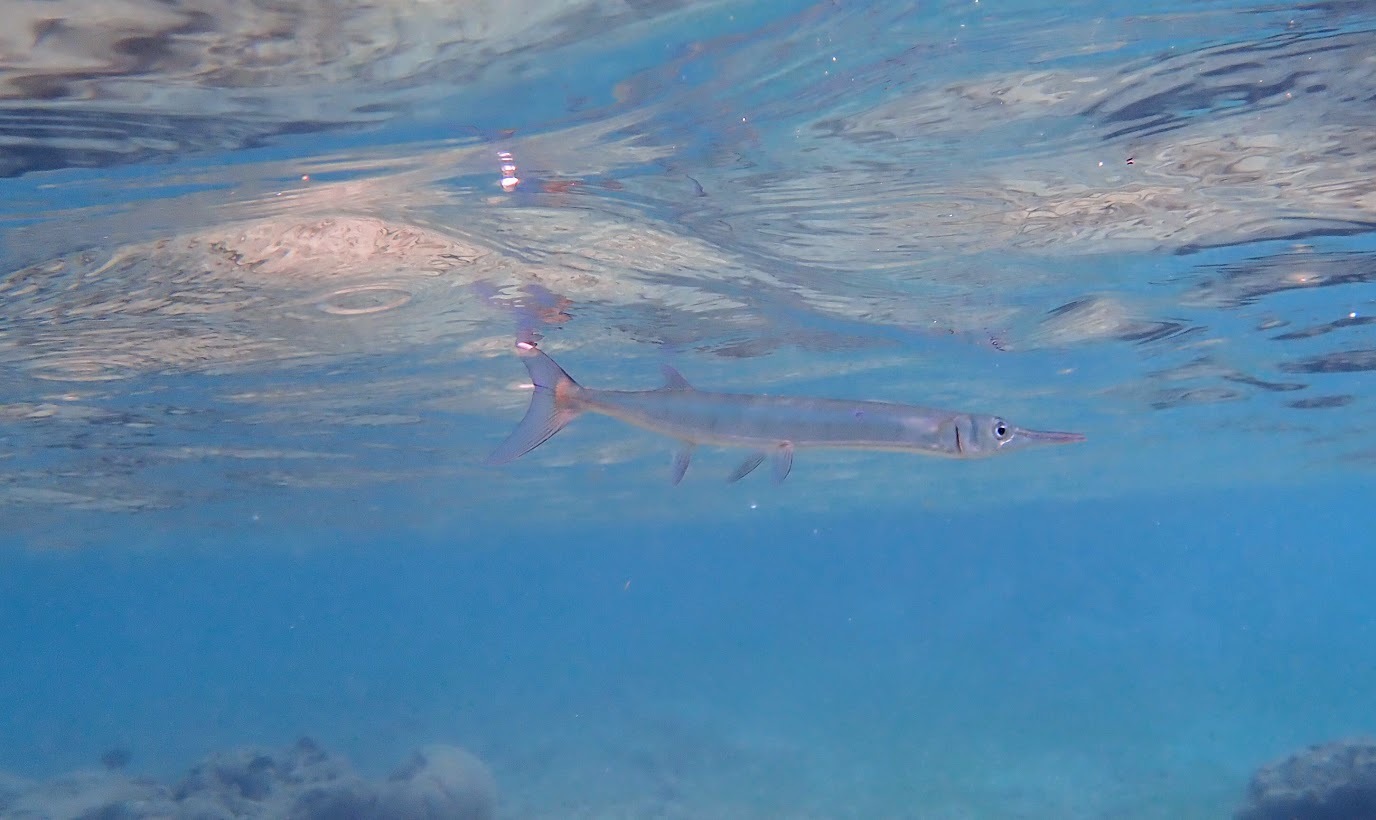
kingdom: Animalia
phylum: Chordata
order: Beloniformes
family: Belonidae
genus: Tylosurus
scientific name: Tylosurus crocodilus
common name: Houndfish
